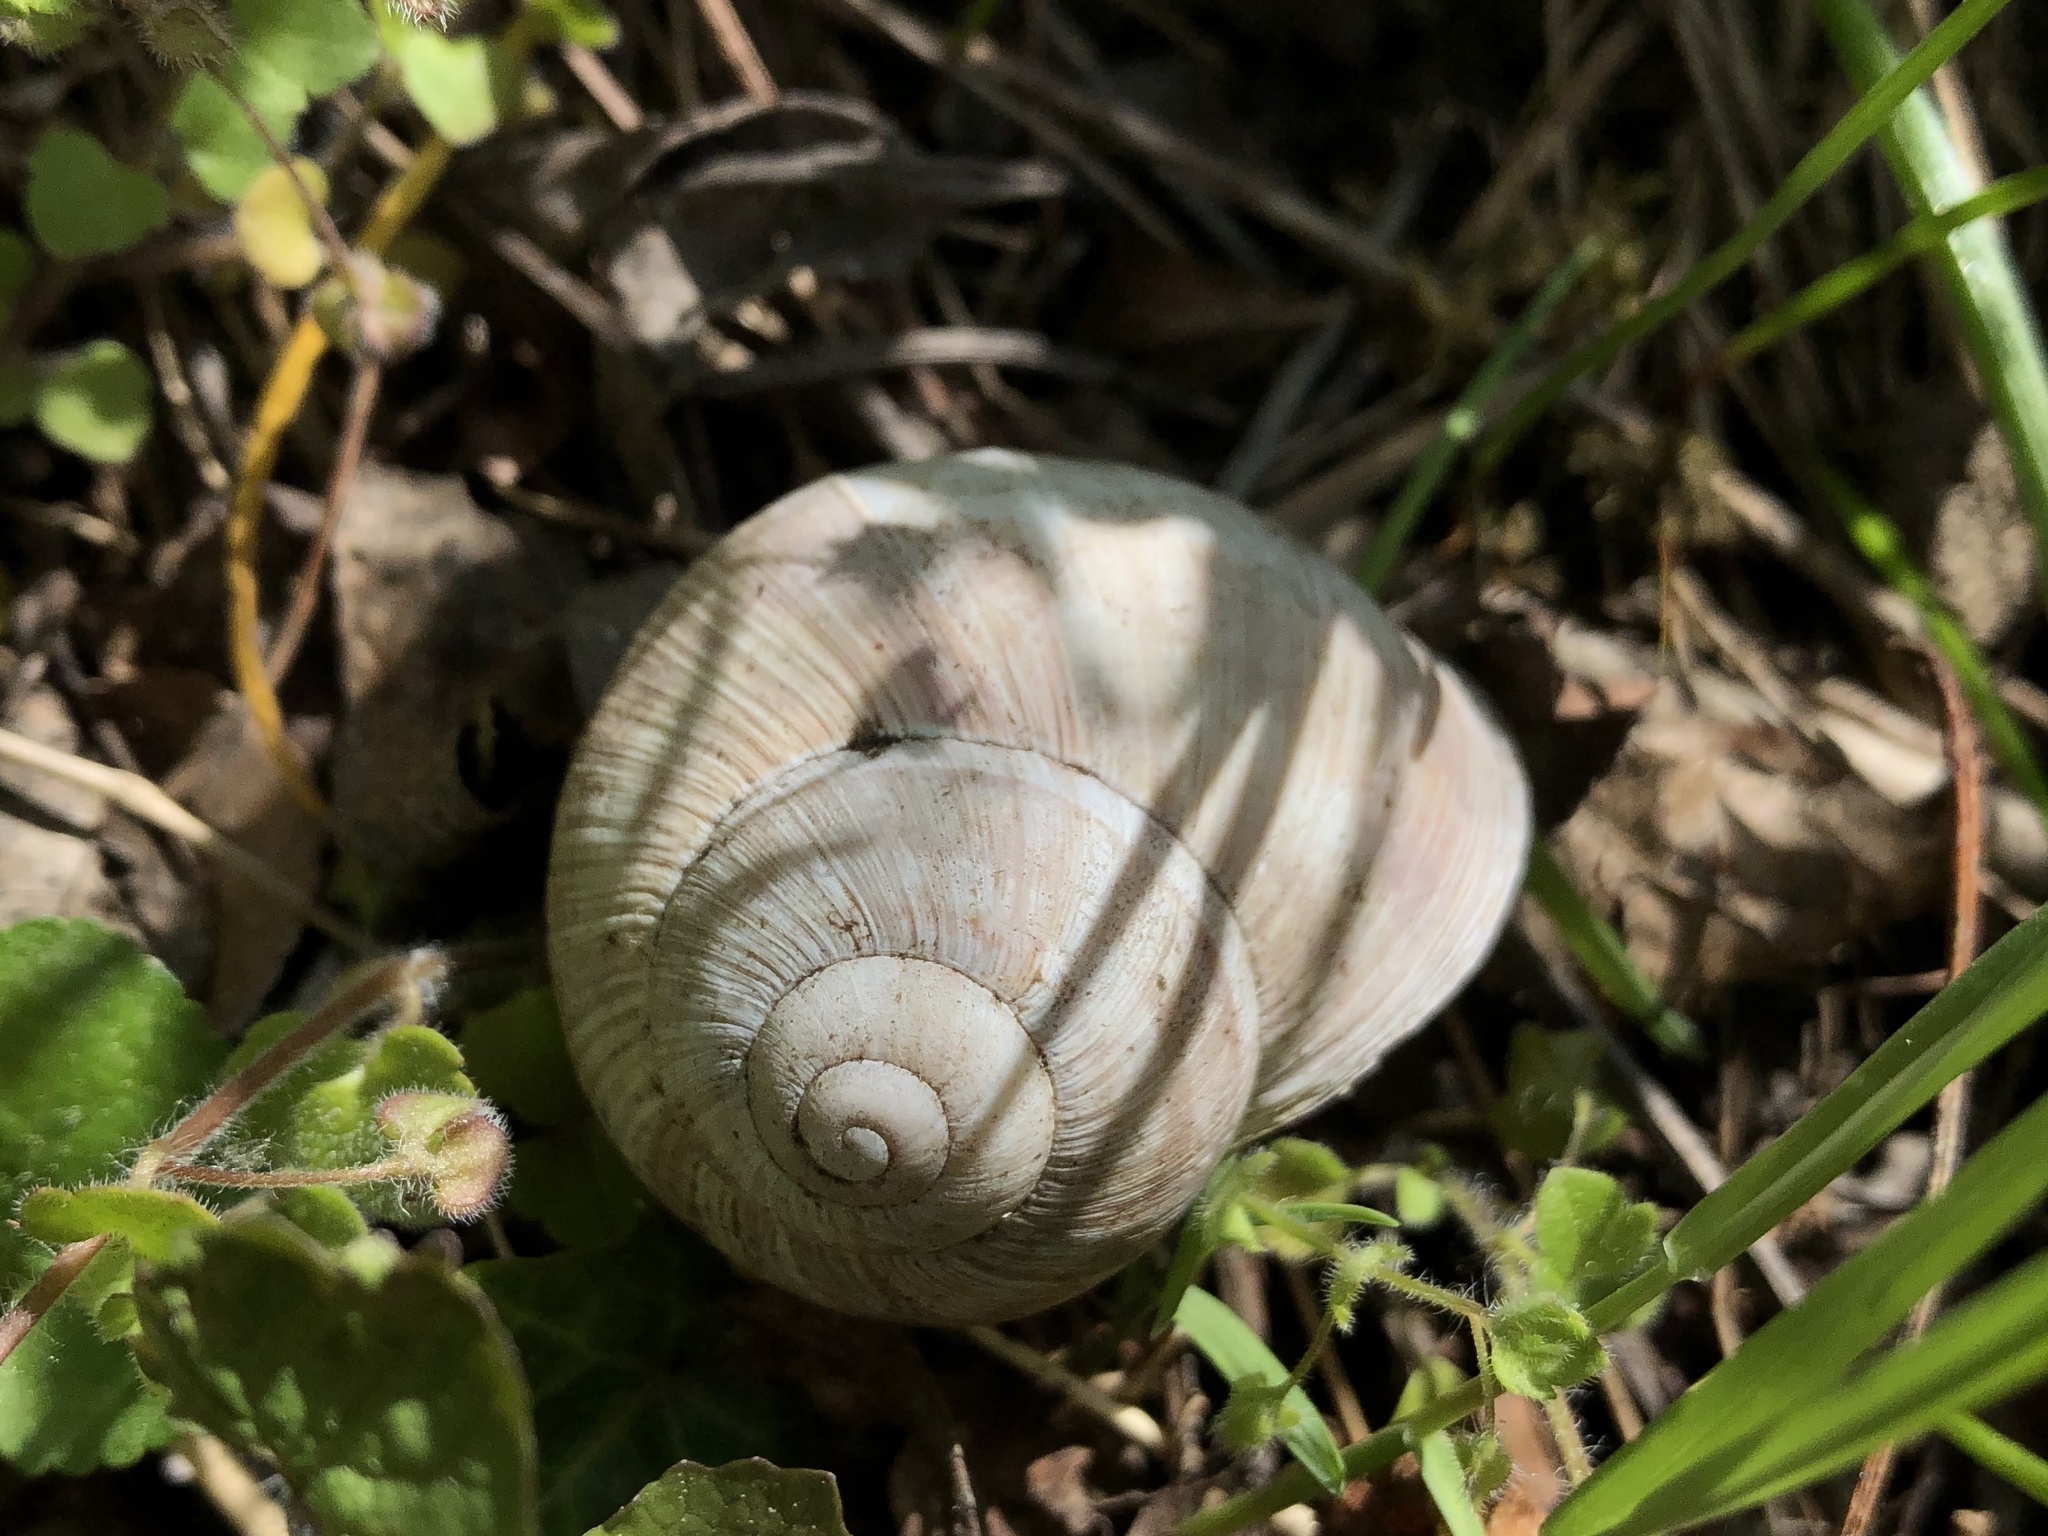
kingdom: Animalia
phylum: Mollusca
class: Gastropoda
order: Stylommatophora
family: Helicidae
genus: Helix
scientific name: Helix pomatia
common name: Roman snail
